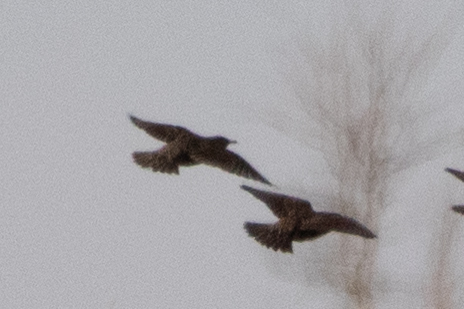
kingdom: Animalia
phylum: Chordata
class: Aves
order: Passeriformes
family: Sturnidae
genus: Sturnus
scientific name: Sturnus vulgaris
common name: Common starling
